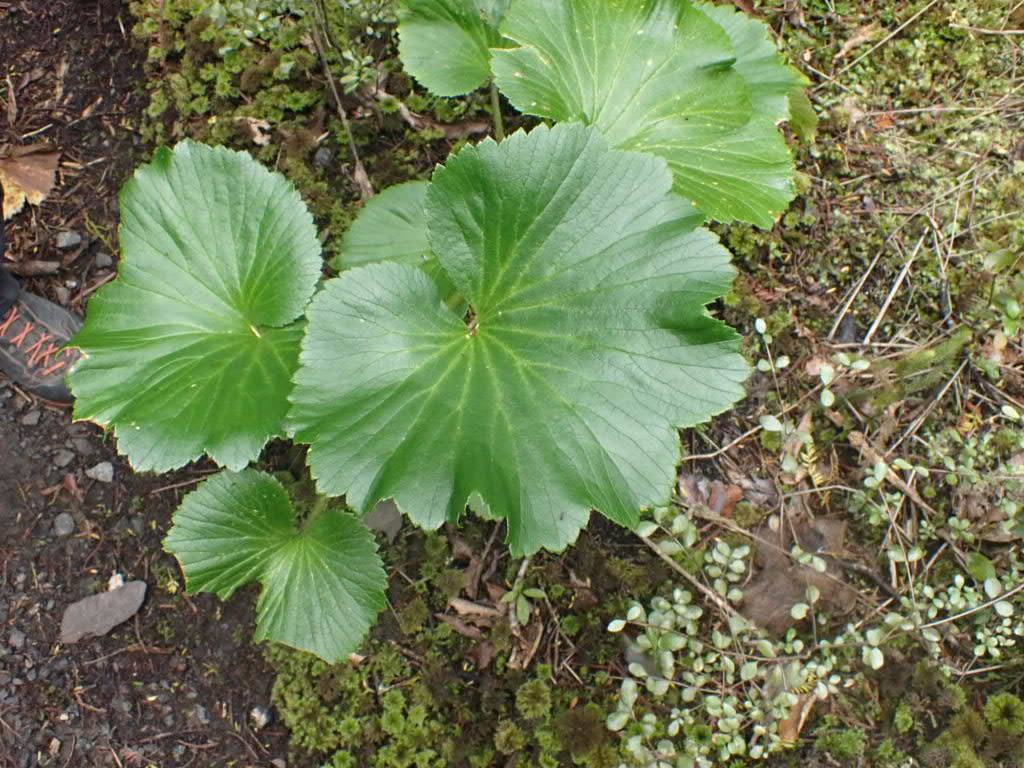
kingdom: Plantae
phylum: Tracheophyta
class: Magnoliopsida
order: Apiales
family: Apiaceae
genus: Azorella
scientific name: Azorella lyallii
